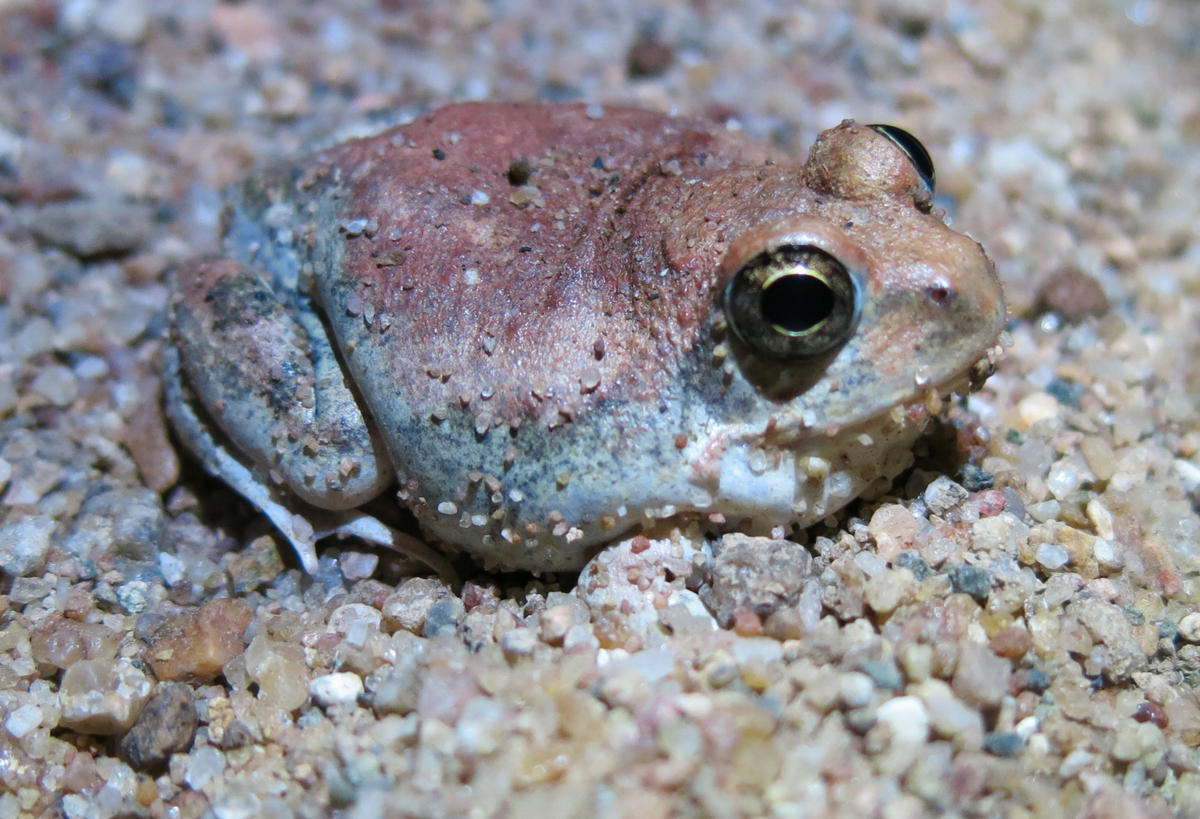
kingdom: Animalia
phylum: Chordata
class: Amphibia
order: Anura
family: Pyxicephalidae
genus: Tomopterna
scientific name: Tomopterna marmorata
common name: Russet-backed sand frog
